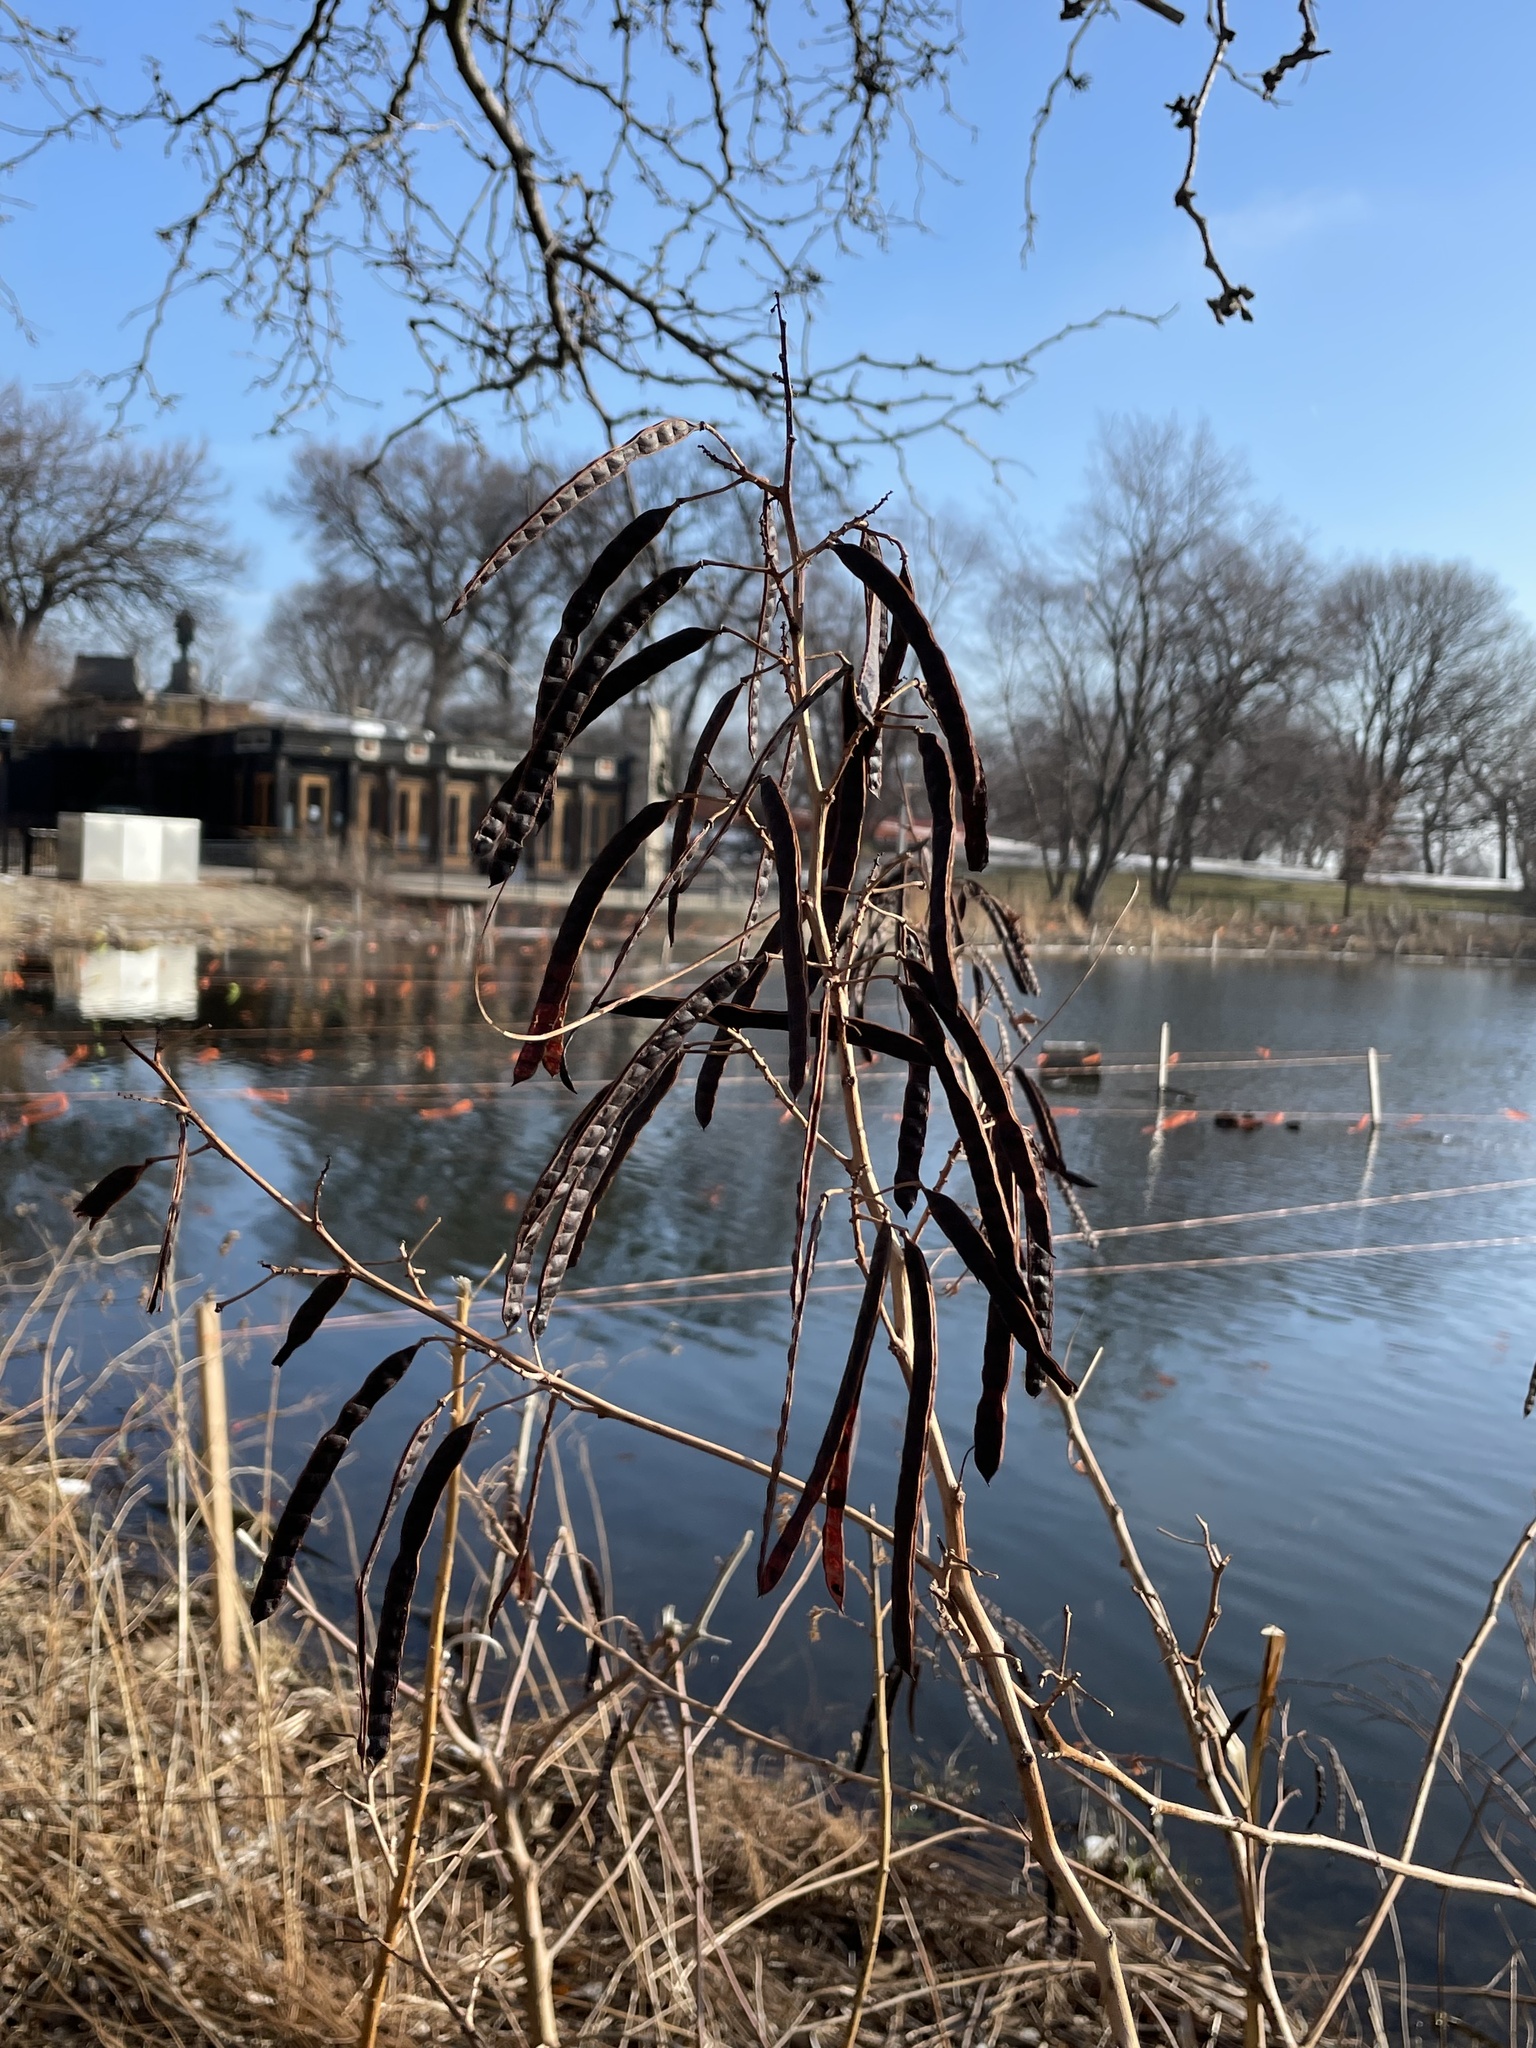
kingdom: Plantae
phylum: Tracheophyta
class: Magnoliopsida
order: Fabales
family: Fabaceae
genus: Senna
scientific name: Senna hebecarpa
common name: Wild senna
